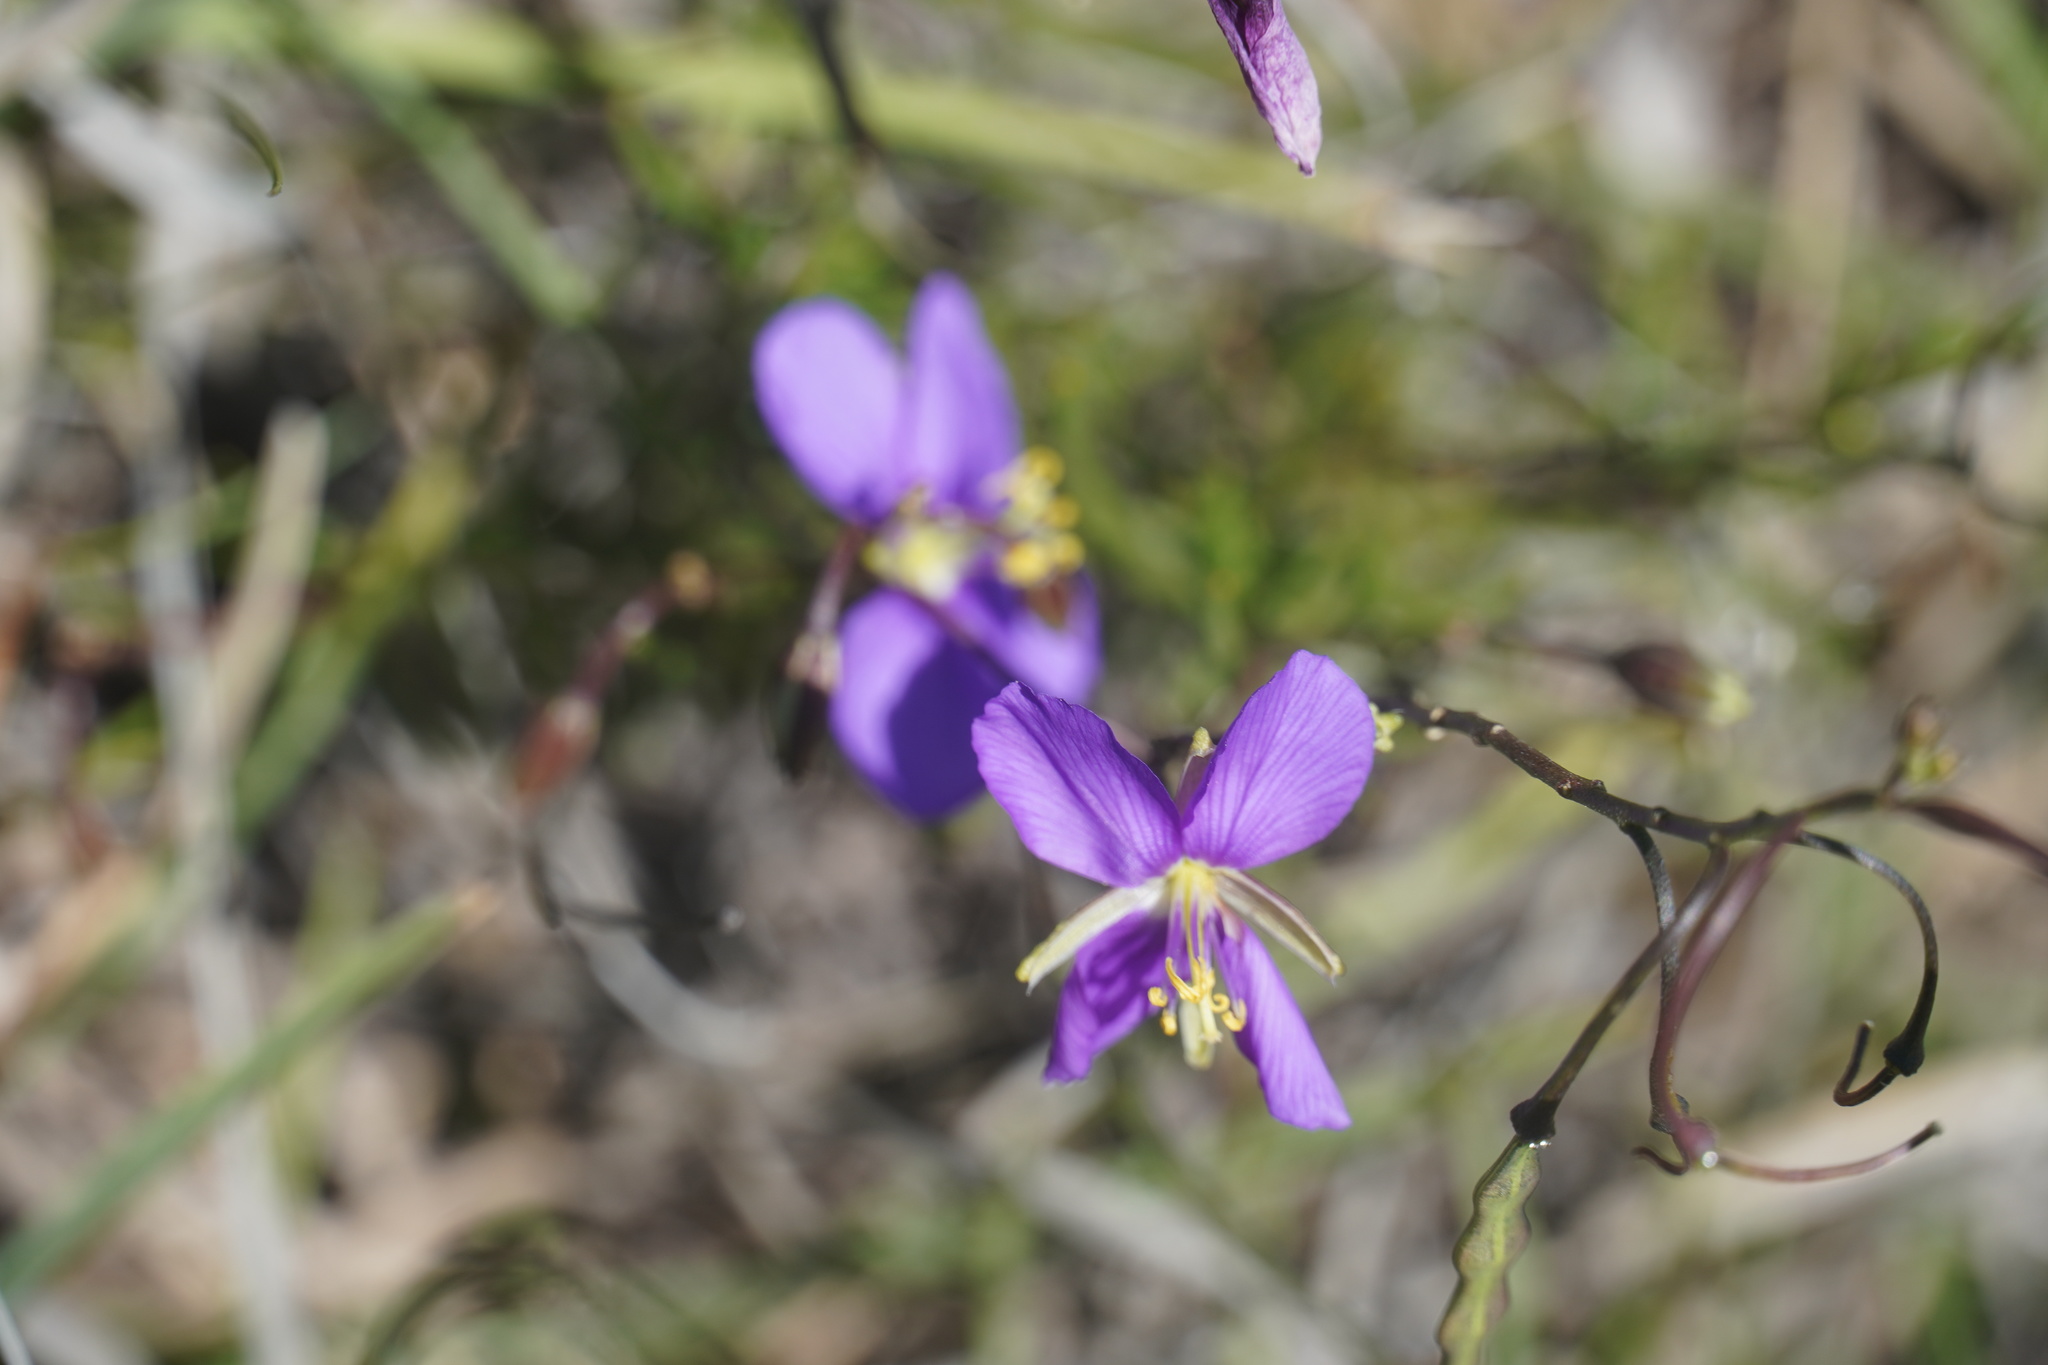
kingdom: Plantae
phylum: Tracheophyta
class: Magnoliopsida
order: Brassicales
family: Brassicaceae
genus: Heliophila
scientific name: Heliophila suavissima
